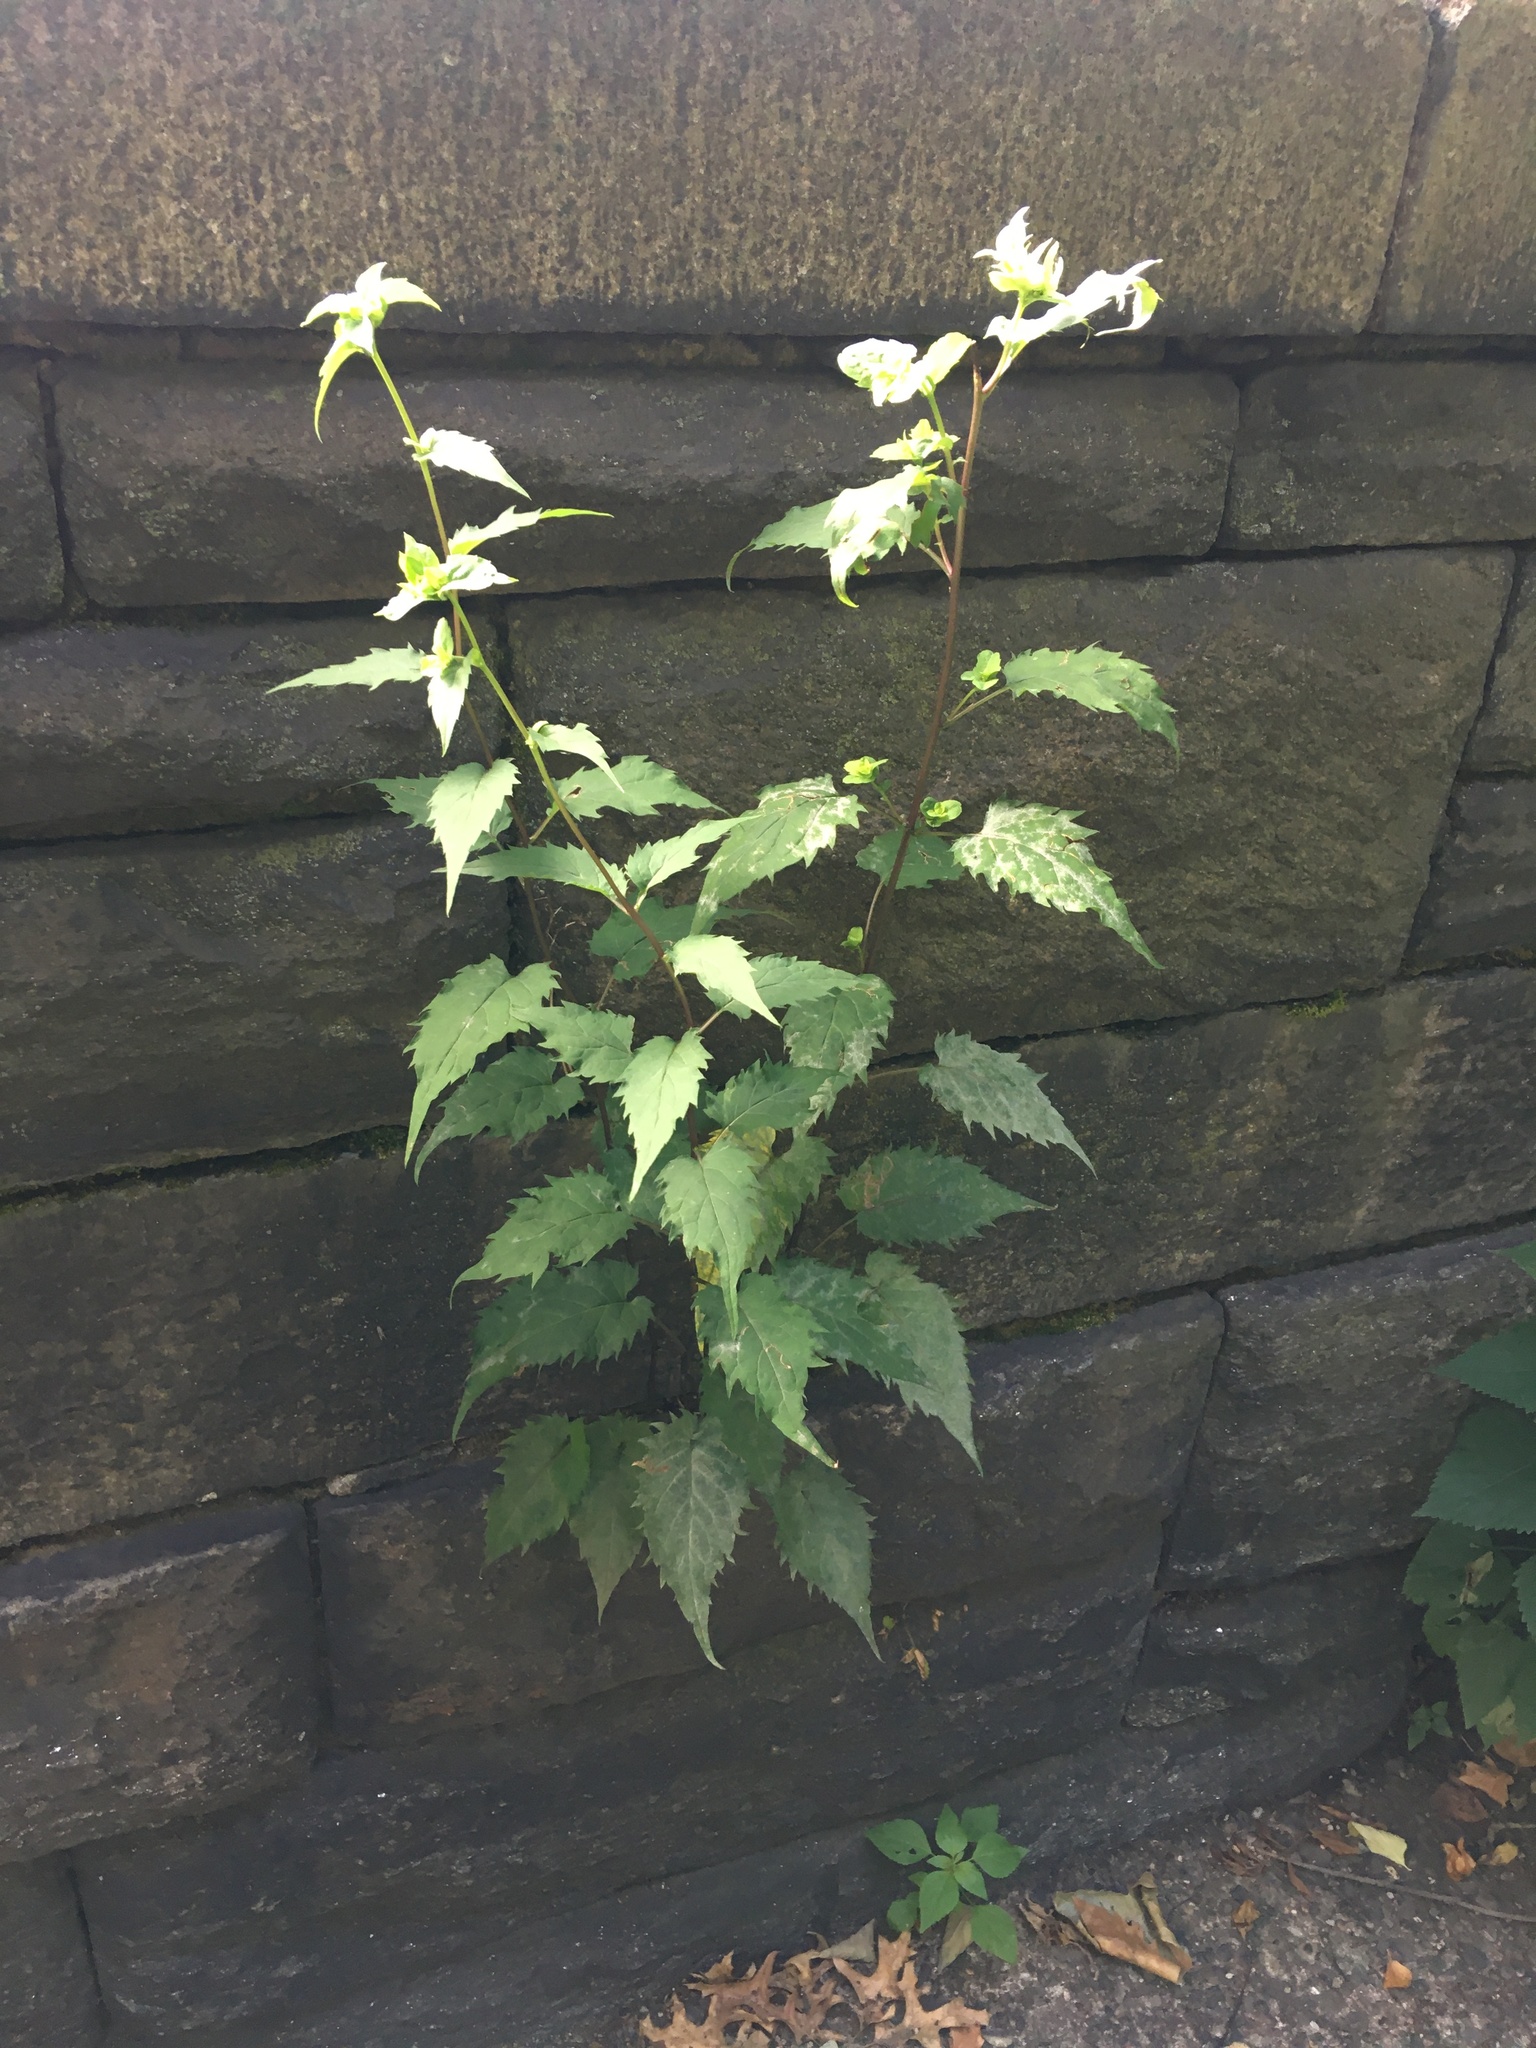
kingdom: Plantae
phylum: Tracheophyta
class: Magnoliopsida
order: Asterales
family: Asteraceae
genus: Eurybia
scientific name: Eurybia divaricata
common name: White wood aster
